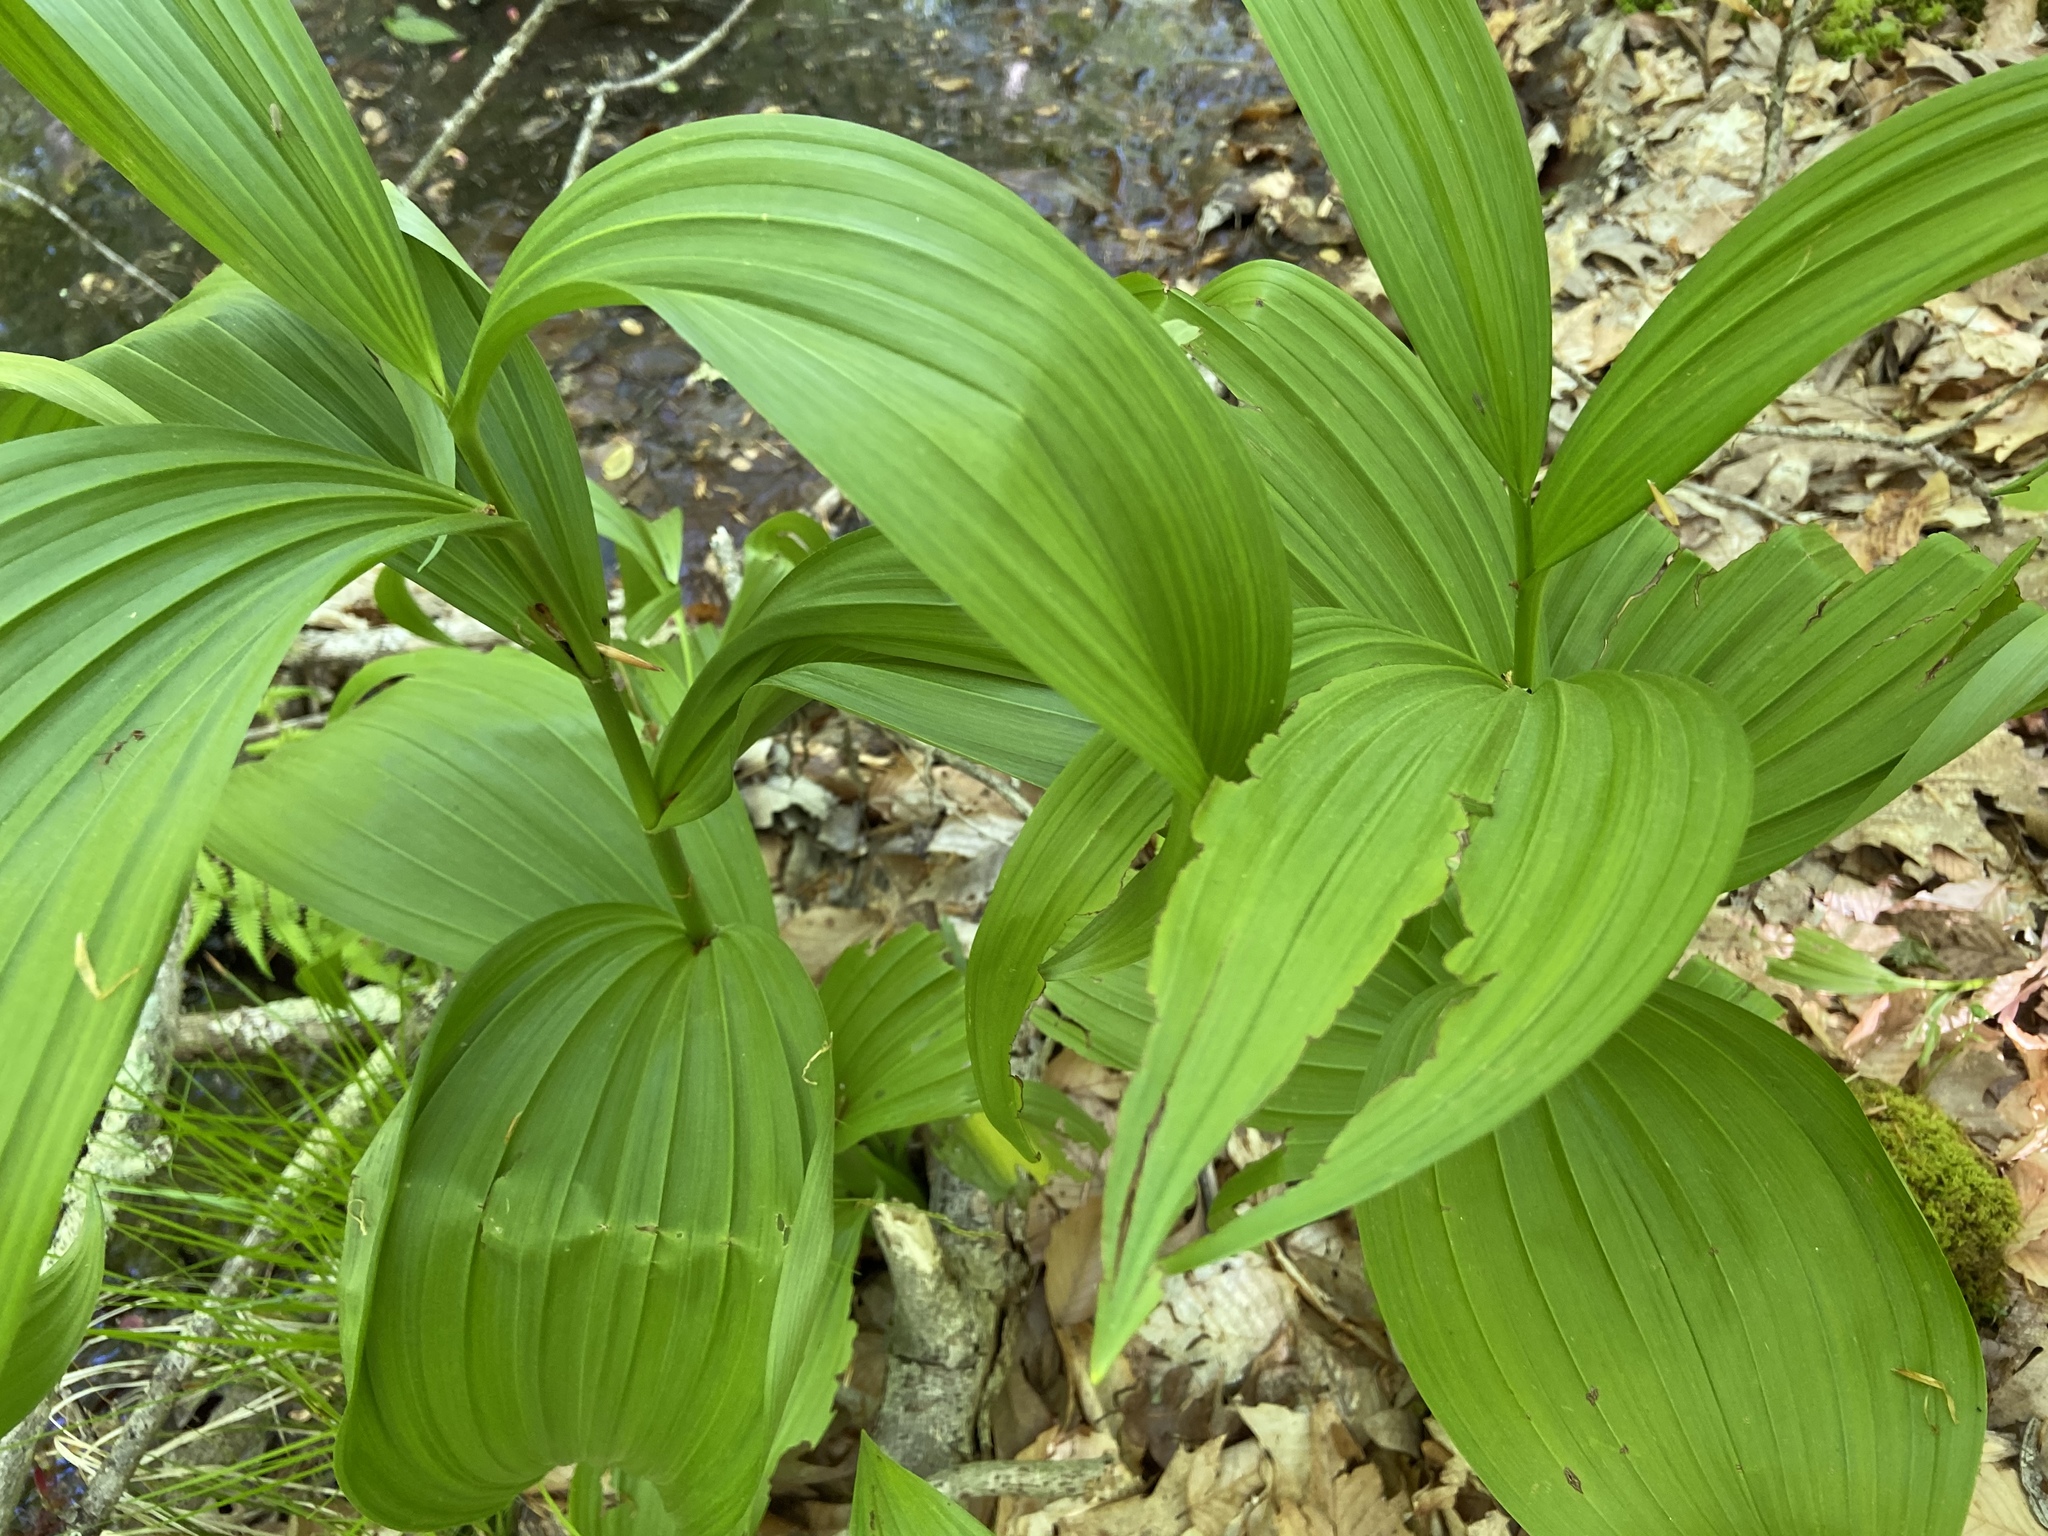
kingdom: Plantae
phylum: Tracheophyta
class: Liliopsida
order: Liliales
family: Melanthiaceae
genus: Veratrum
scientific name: Veratrum viride
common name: American false hellebore
